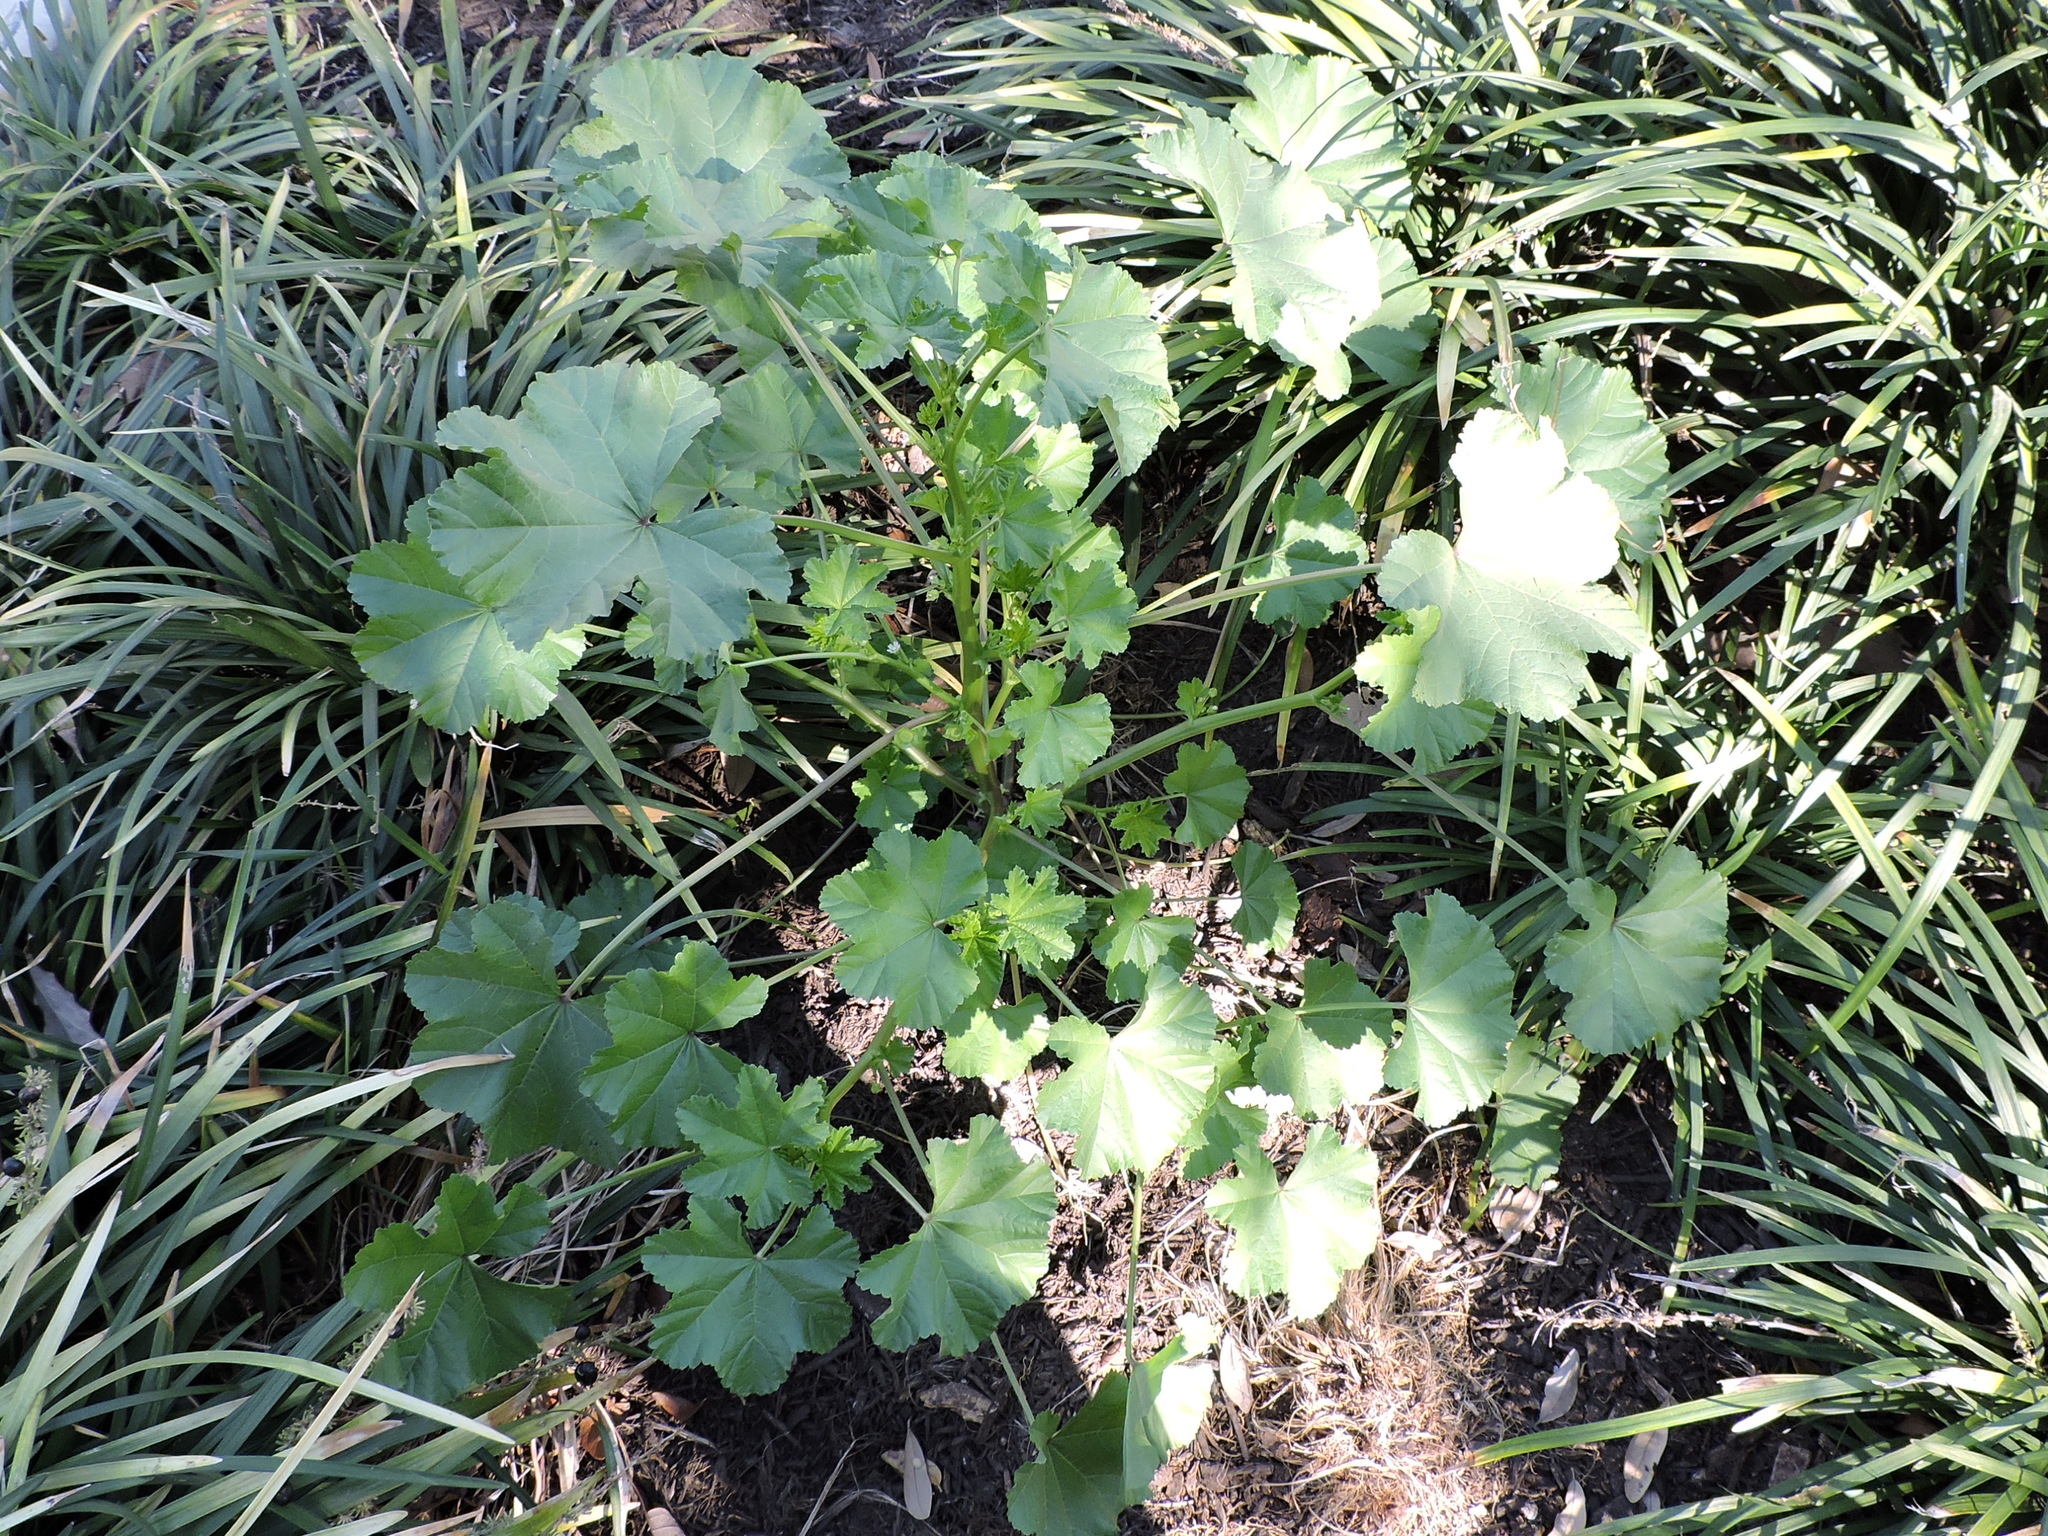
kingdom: Plantae
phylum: Tracheophyta
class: Magnoliopsida
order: Malvales
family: Malvaceae
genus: Malva
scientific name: Malva neglecta
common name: Common mallow
